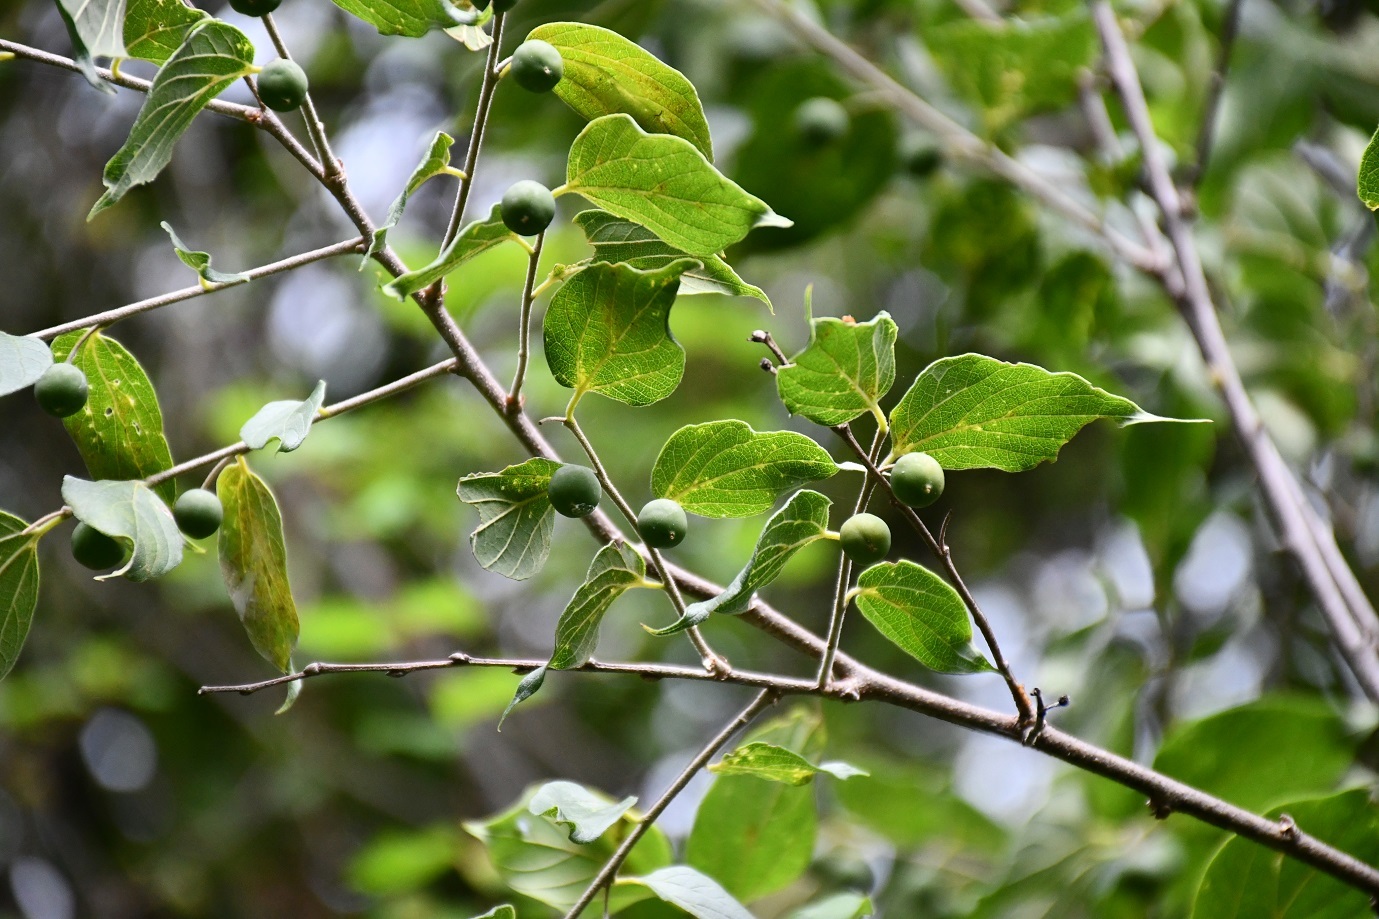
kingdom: Plantae
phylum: Tracheophyta
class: Magnoliopsida
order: Rosales
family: Rhamnaceae
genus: Hovenia
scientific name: Hovenia
